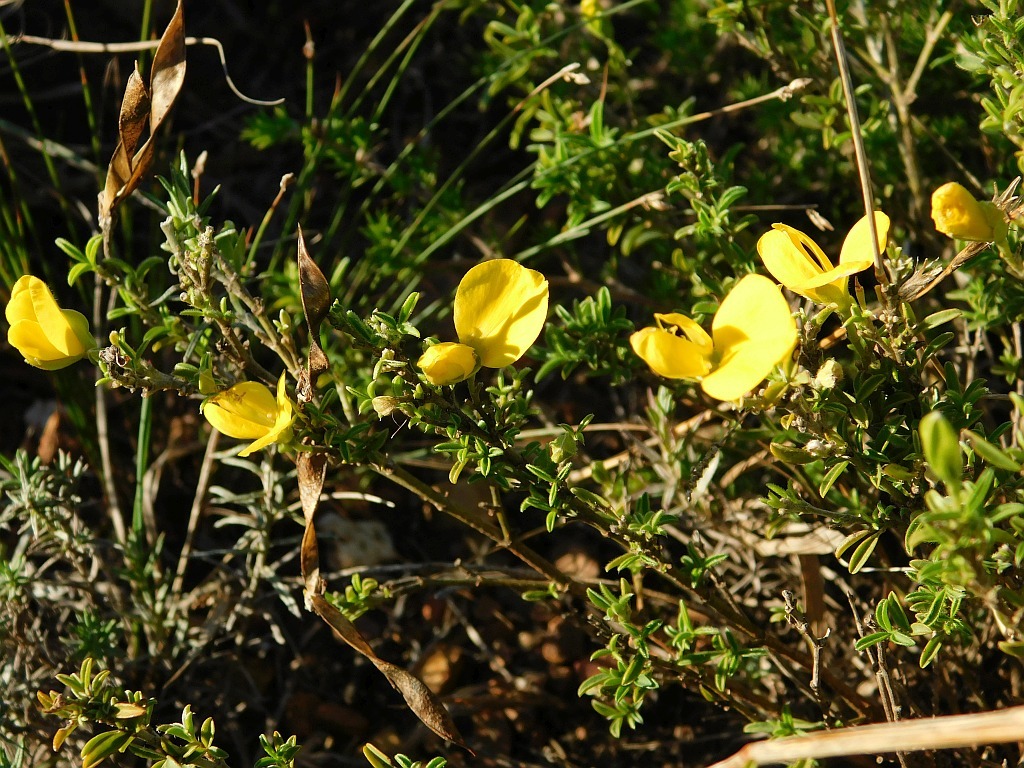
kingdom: Plantae
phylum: Tracheophyta
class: Magnoliopsida
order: Fabales
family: Fabaceae
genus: Argyrolobium
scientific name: Argyrolobium pachyphyllum
